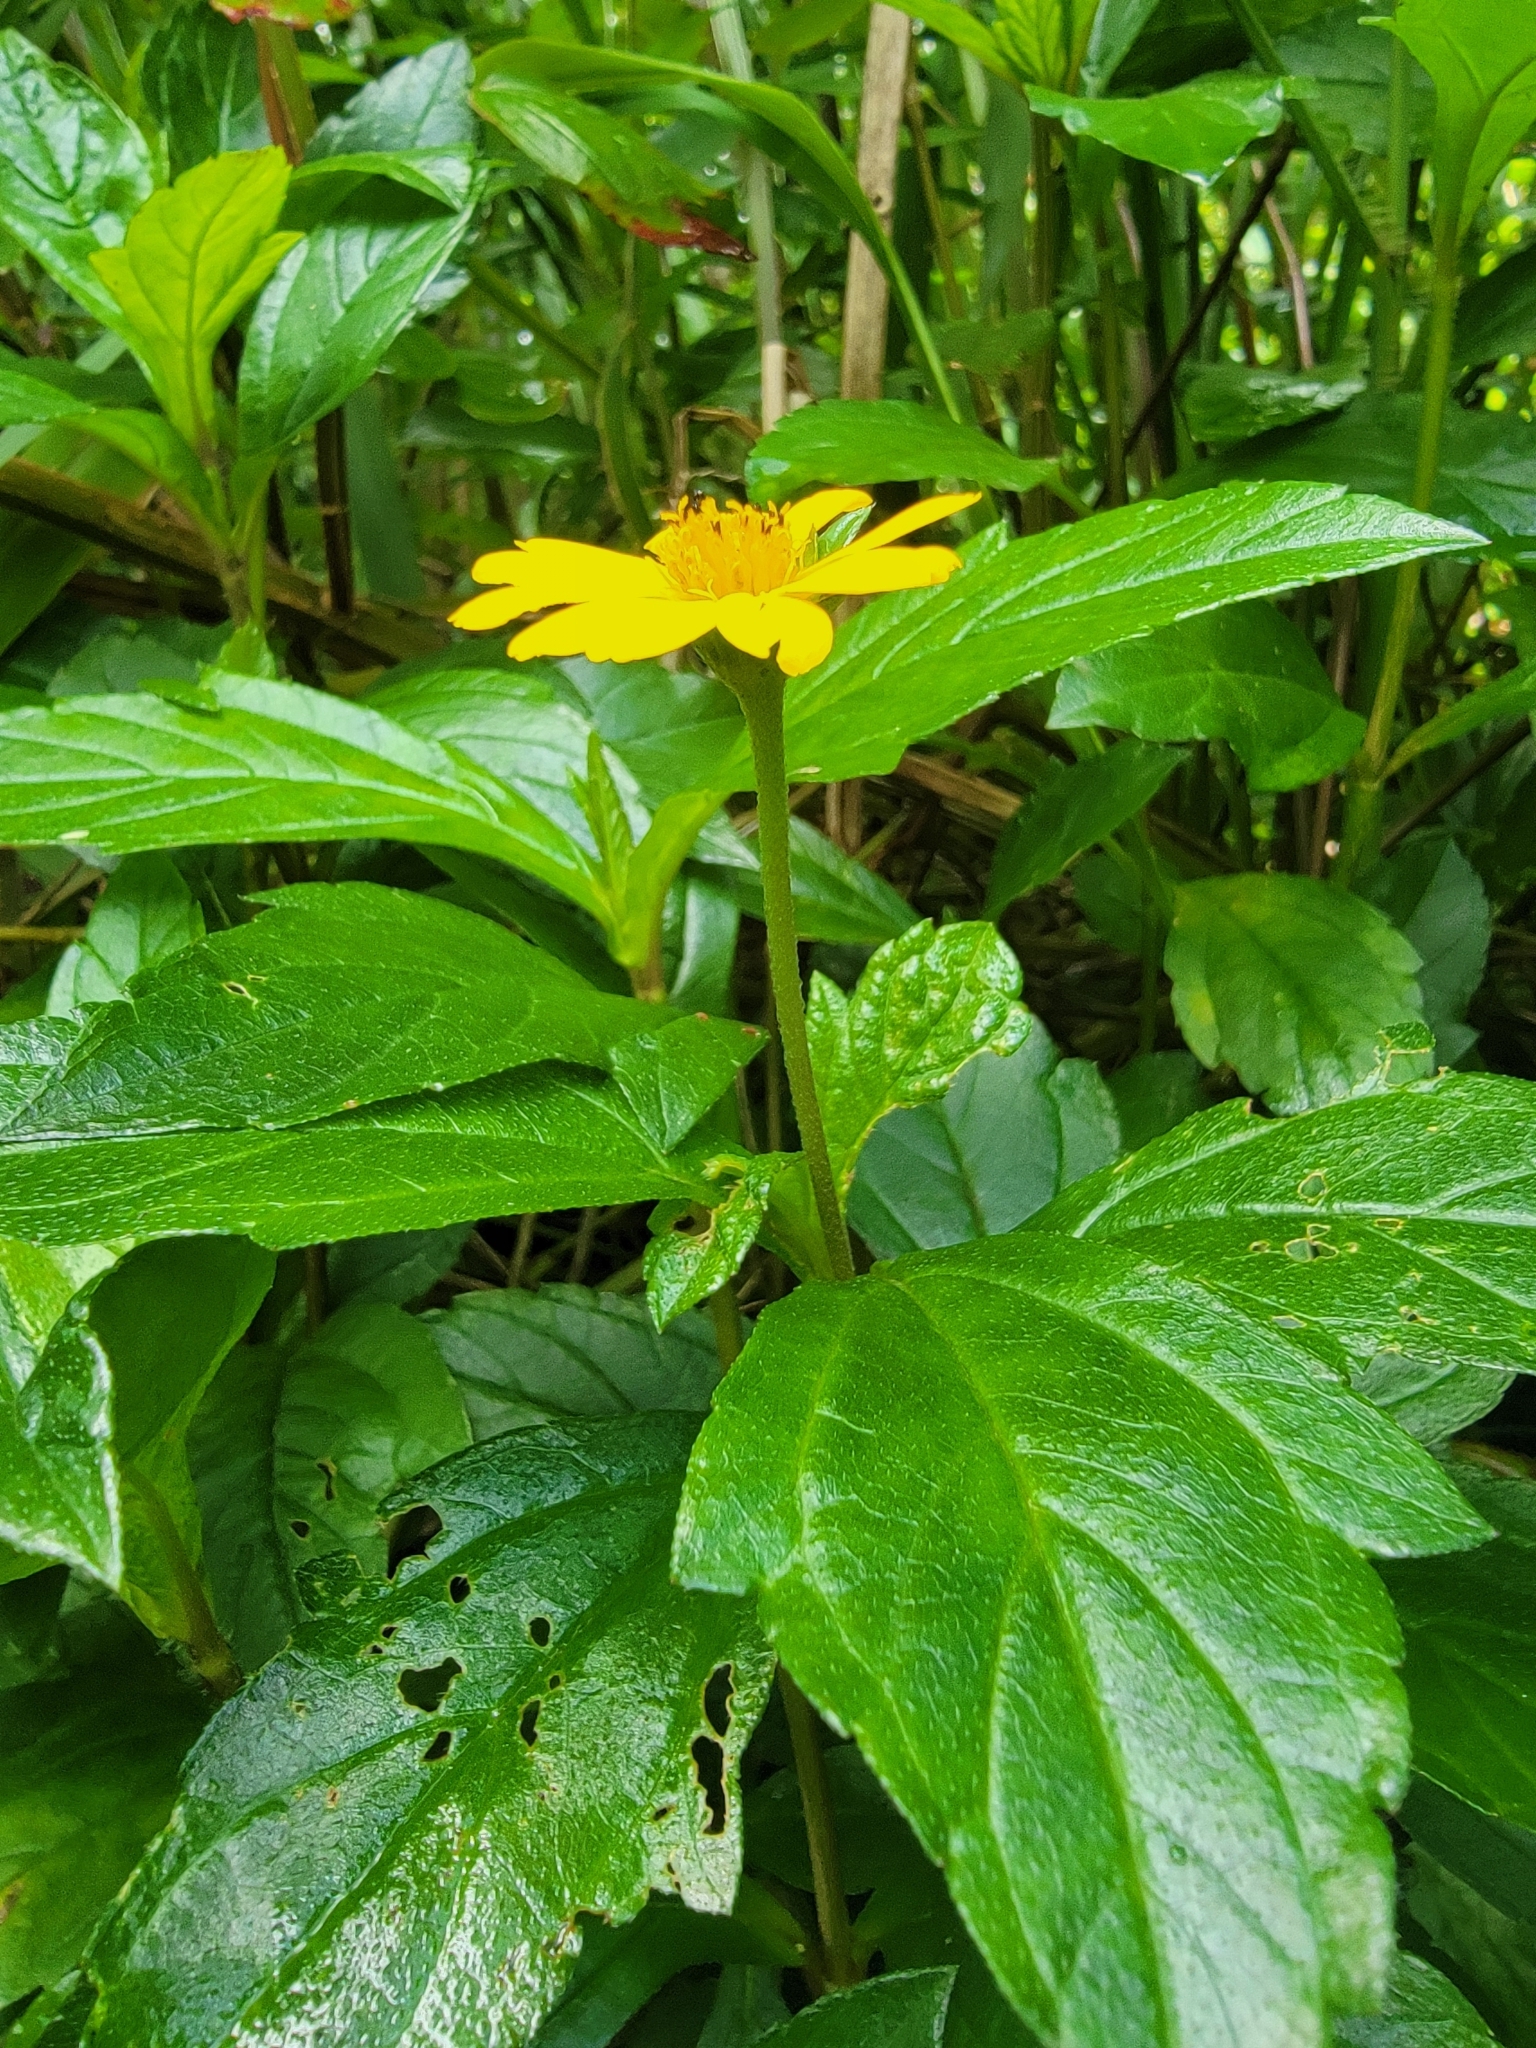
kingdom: Plantae
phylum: Tracheophyta
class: Magnoliopsida
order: Asterales
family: Asteraceae
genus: Sphagneticola
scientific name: Sphagneticola trilobata
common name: Bay biscayne creeping-oxeye
